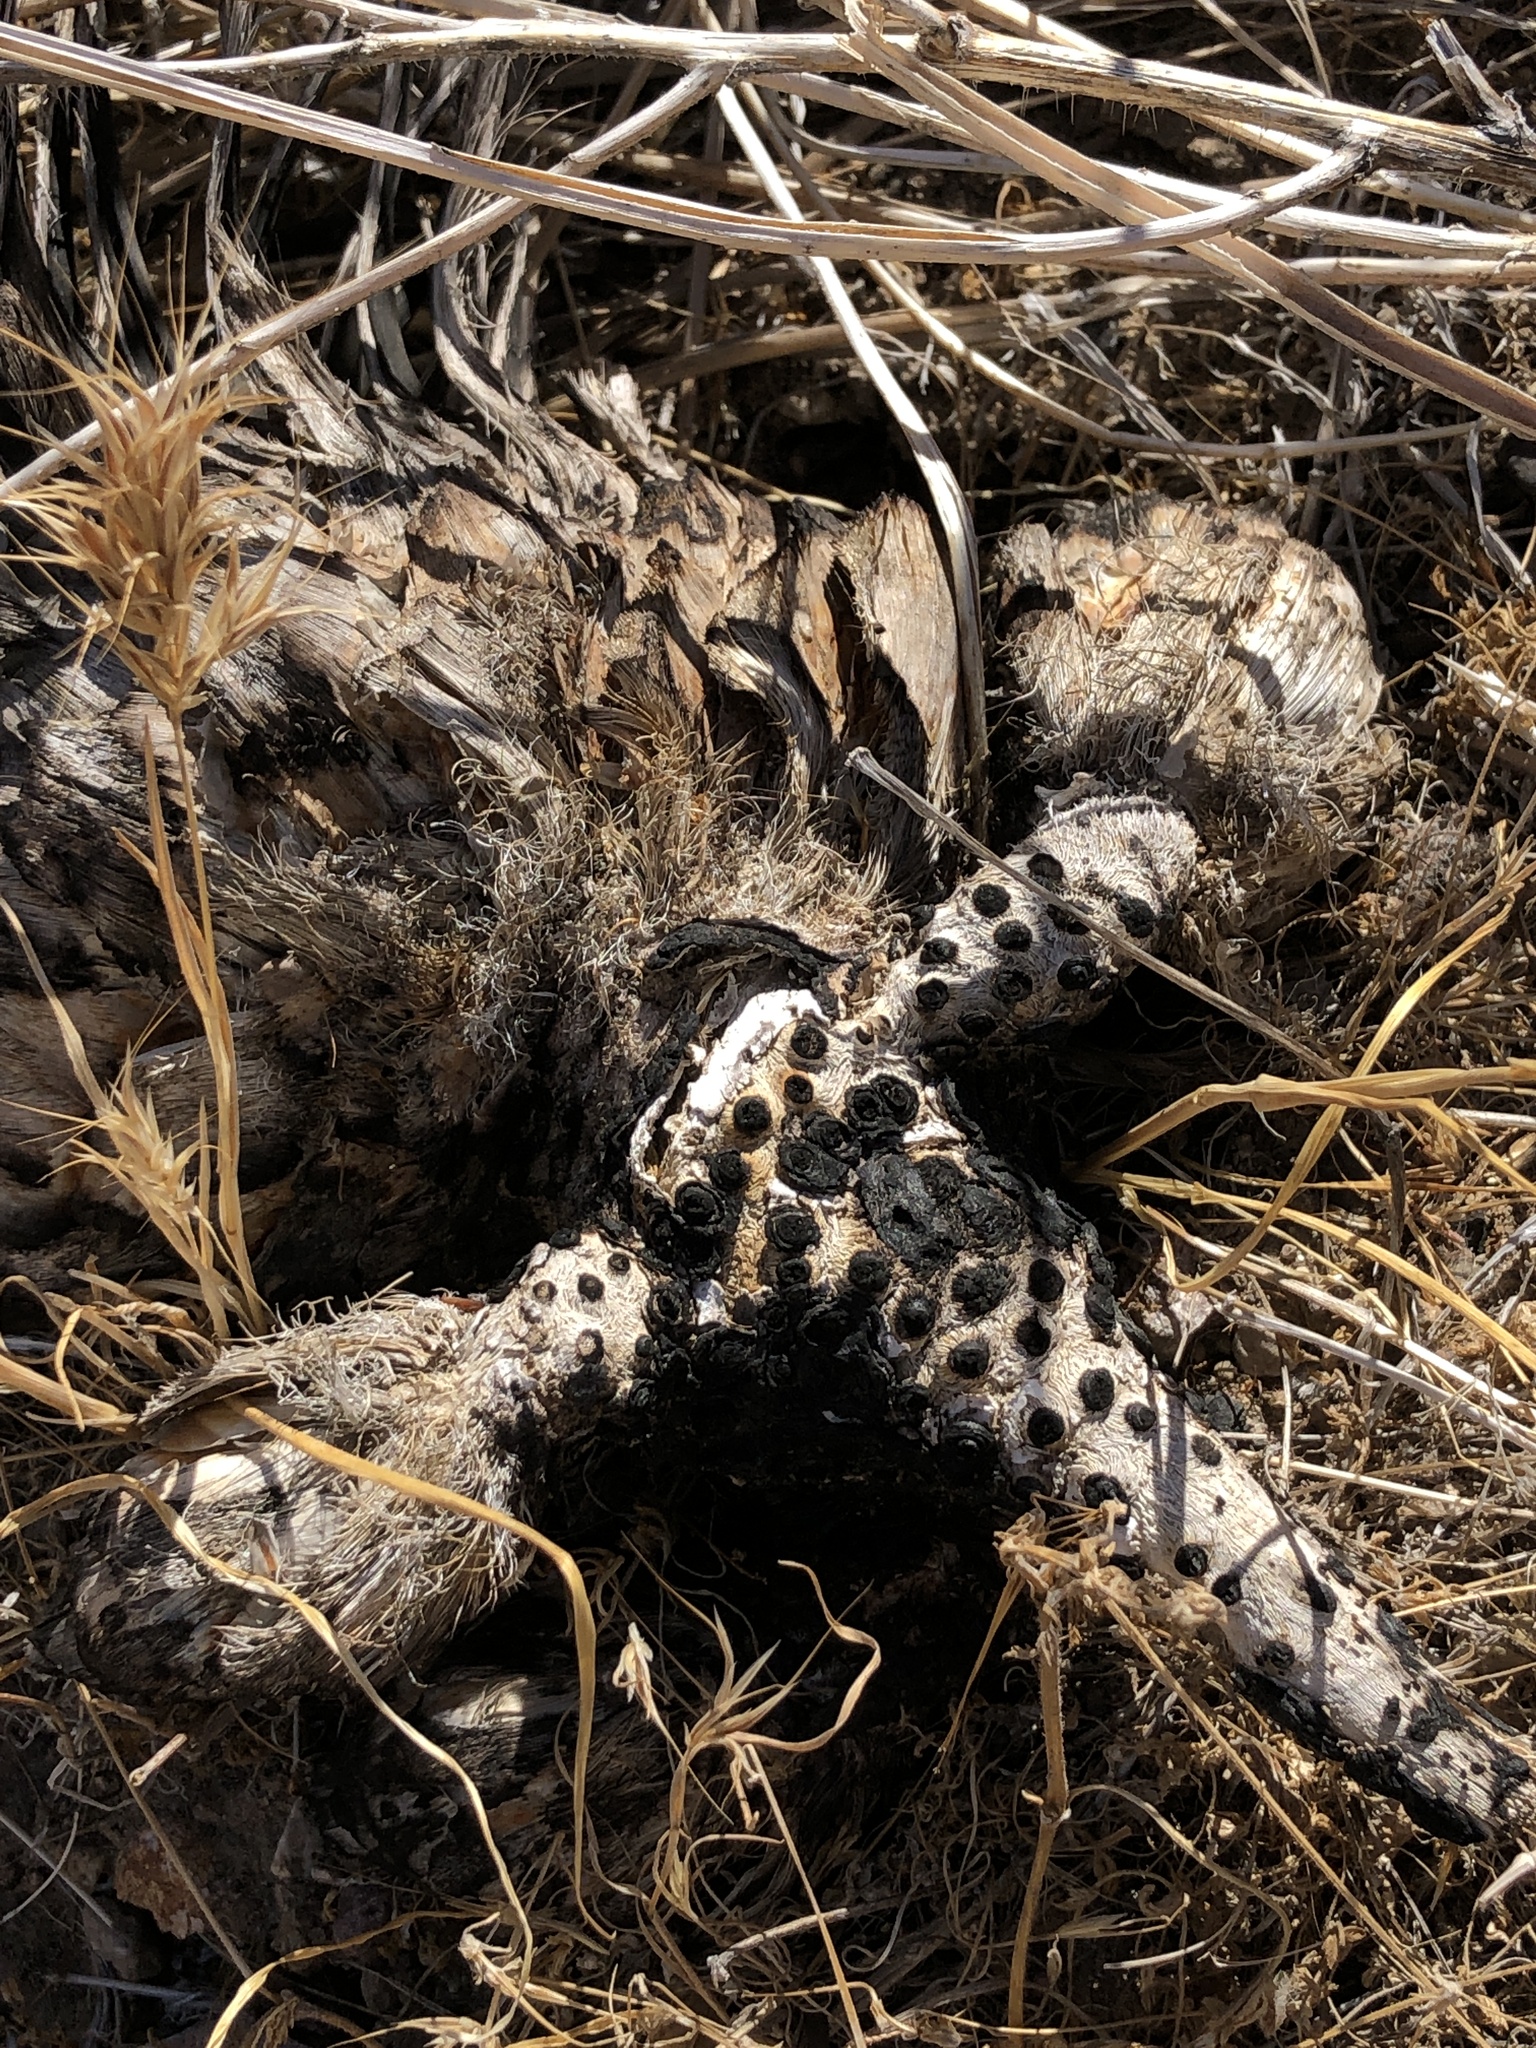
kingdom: Plantae
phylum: Tracheophyta
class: Liliopsida
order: Asparagales
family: Asparagaceae
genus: Hesperoyucca
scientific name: Hesperoyucca whipplei
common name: Our lord's-candle
